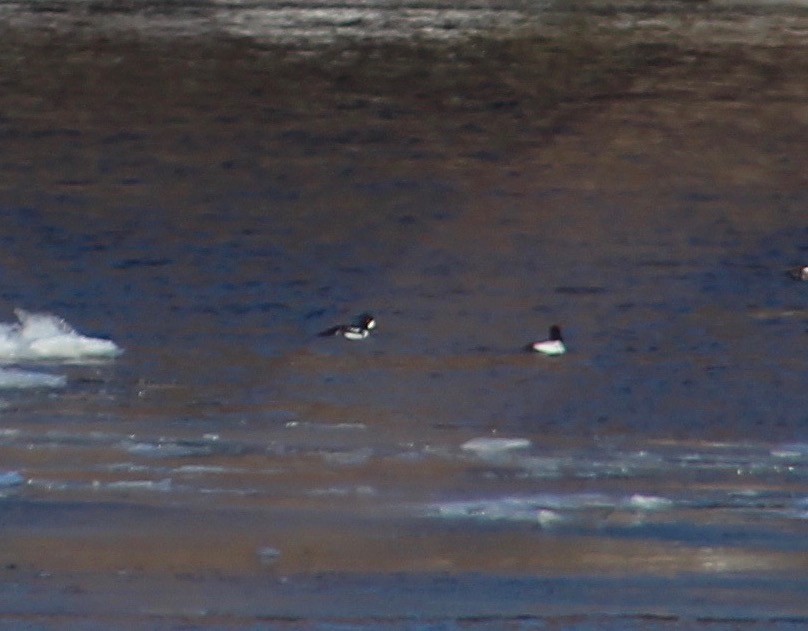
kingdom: Animalia
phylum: Chordata
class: Aves
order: Anseriformes
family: Anatidae
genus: Bucephala
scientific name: Bucephala islandica
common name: Barrow's goldeneye
